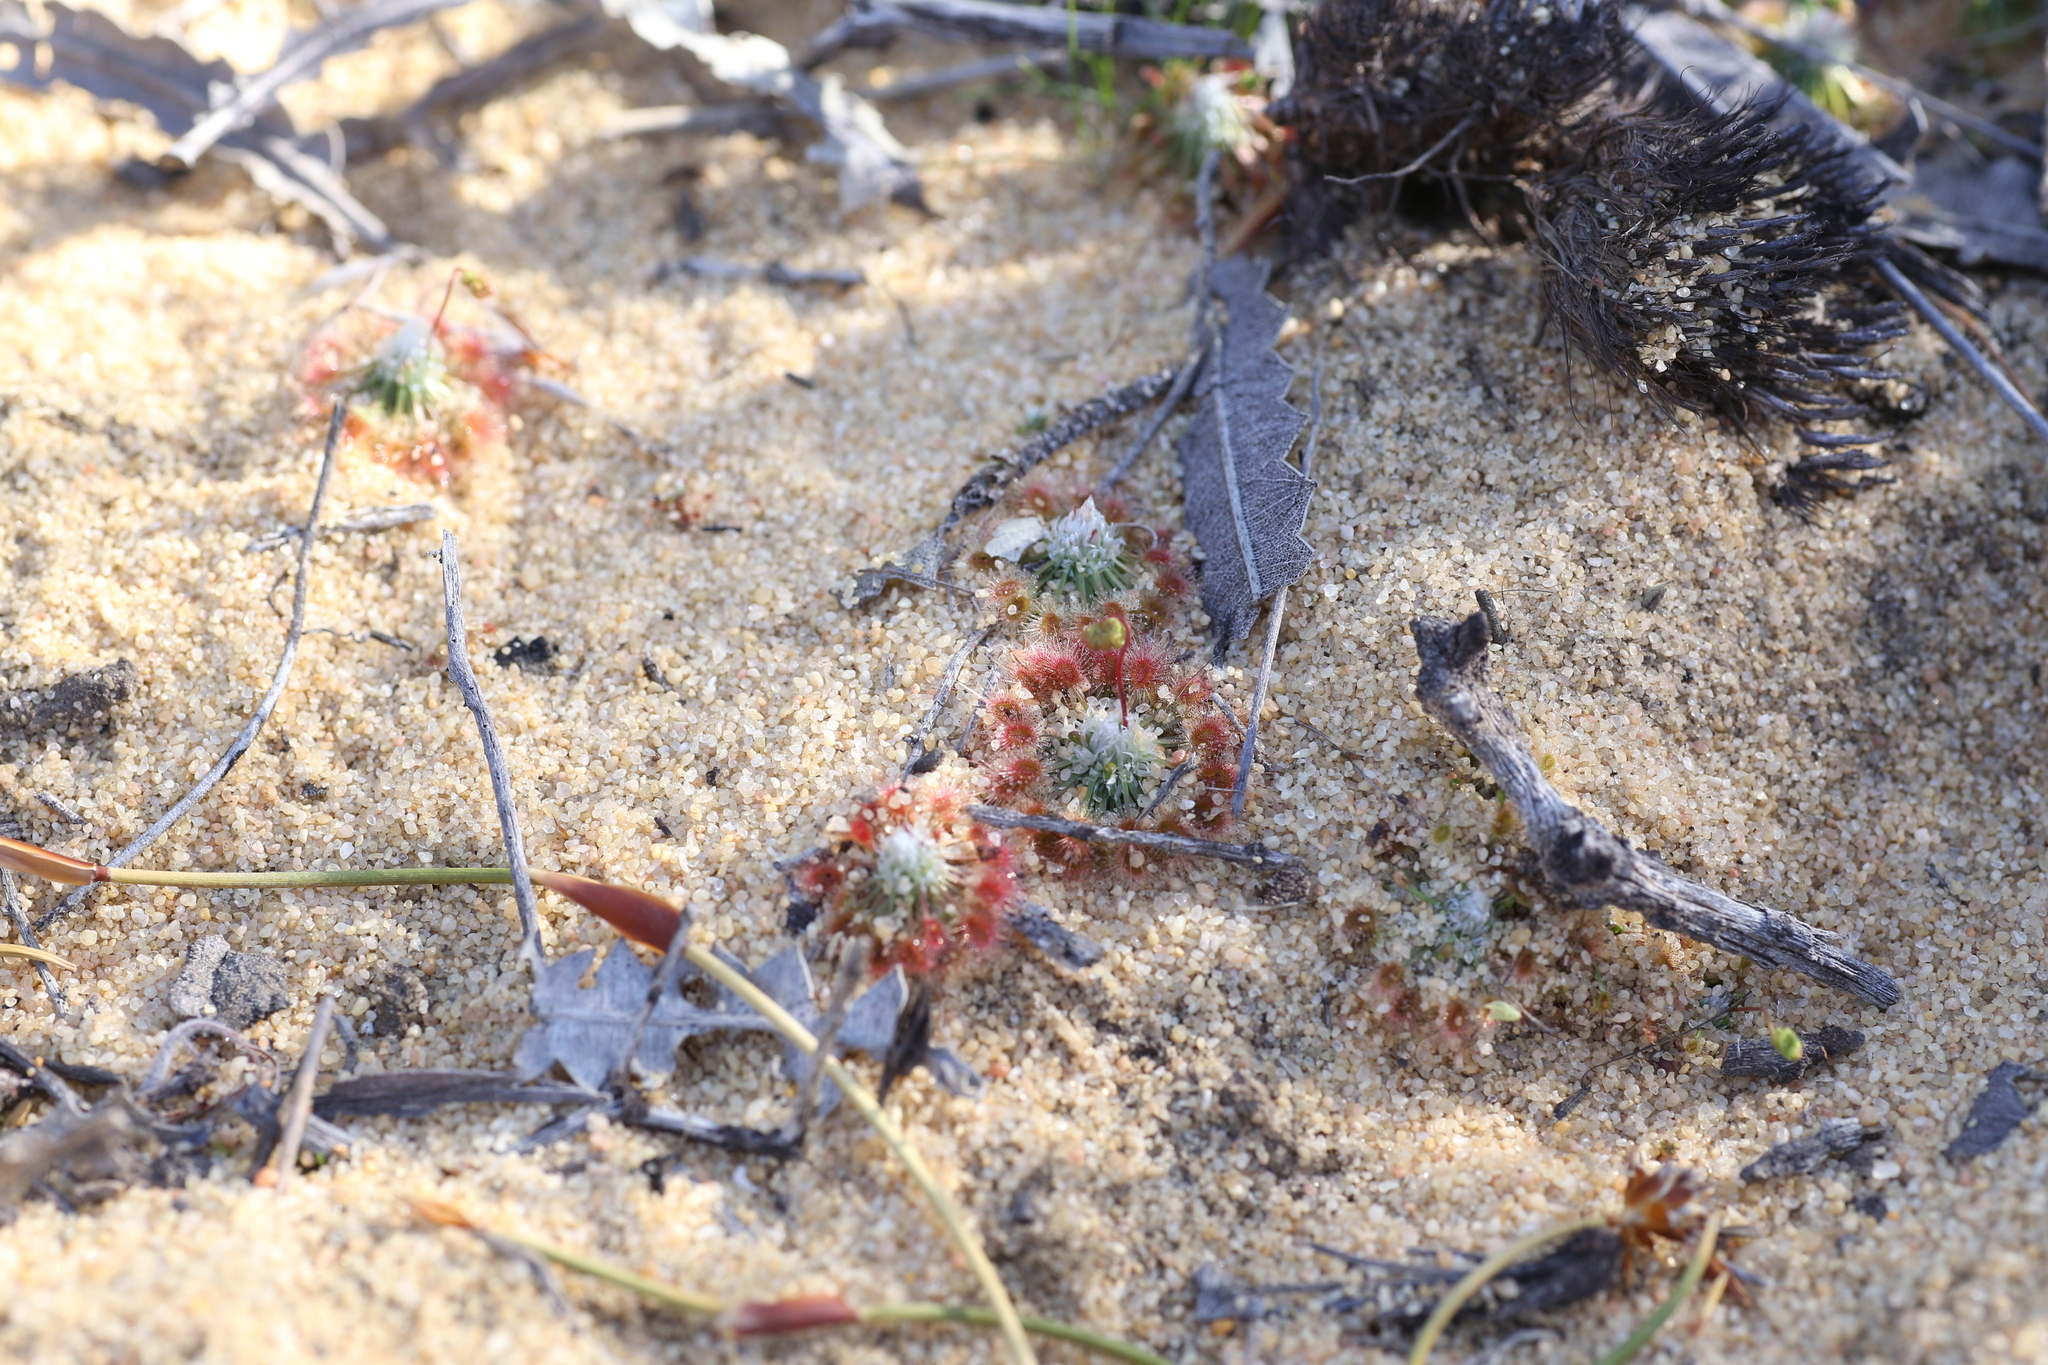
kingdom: Plantae
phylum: Tracheophyta
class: Magnoliopsida
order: Caryophyllales
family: Droseraceae
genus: Drosera
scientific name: Drosera rechingeri
